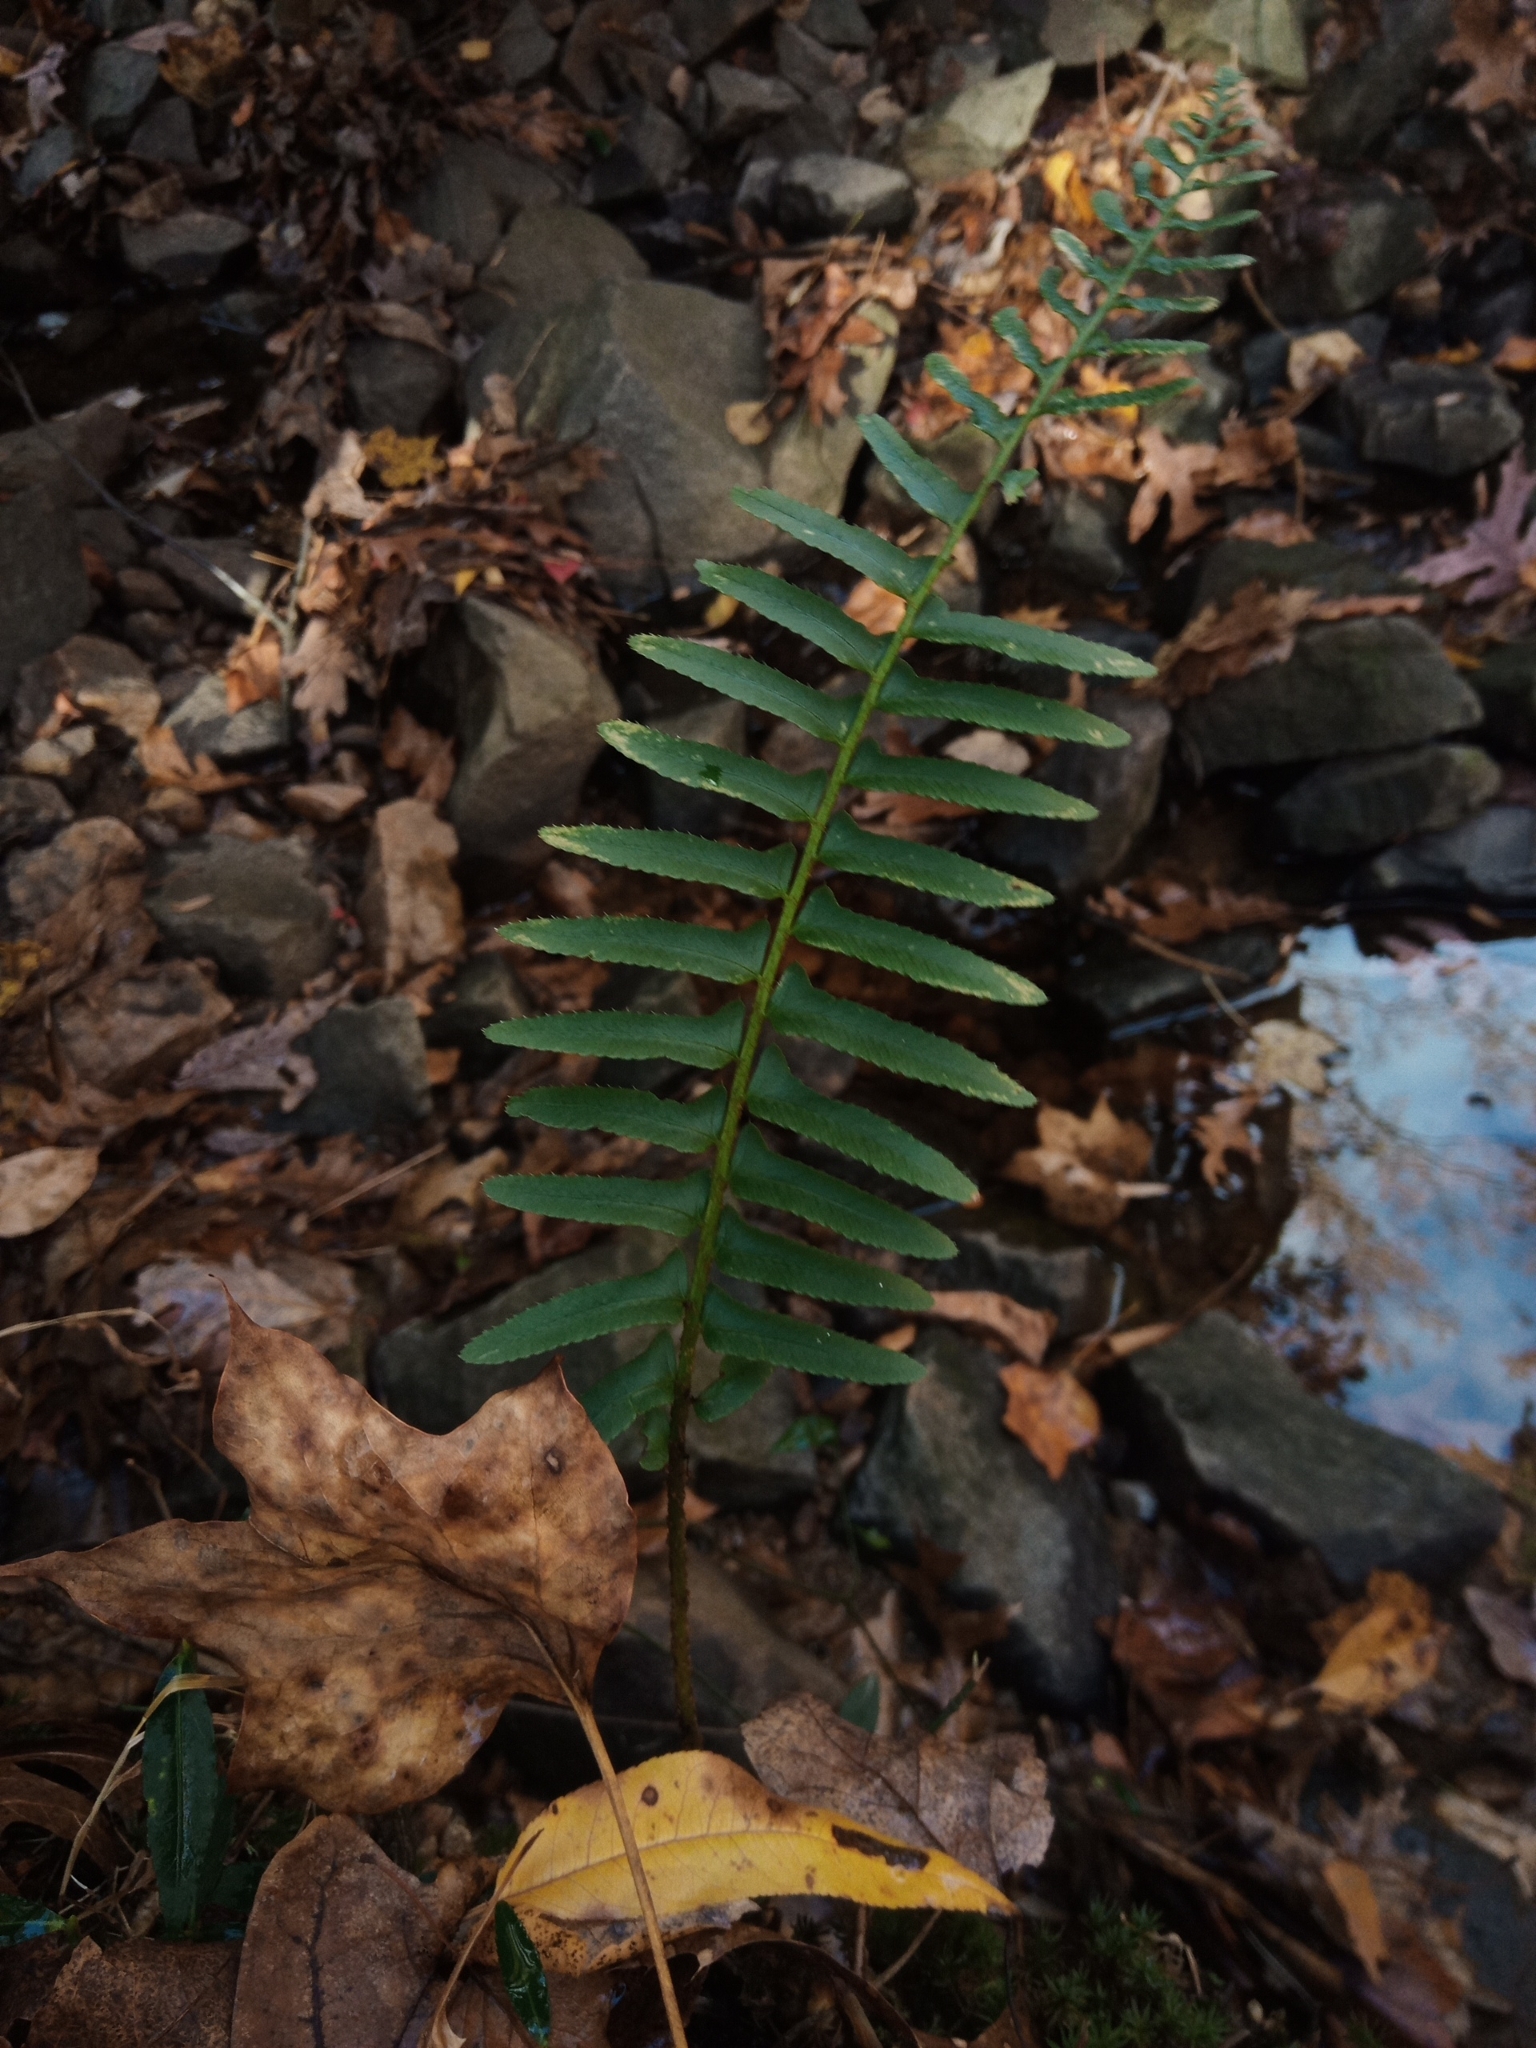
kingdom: Plantae
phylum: Tracheophyta
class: Polypodiopsida
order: Polypodiales
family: Dryopteridaceae
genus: Polystichum
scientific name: Polystichum acrostichoides
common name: Christmas fern
